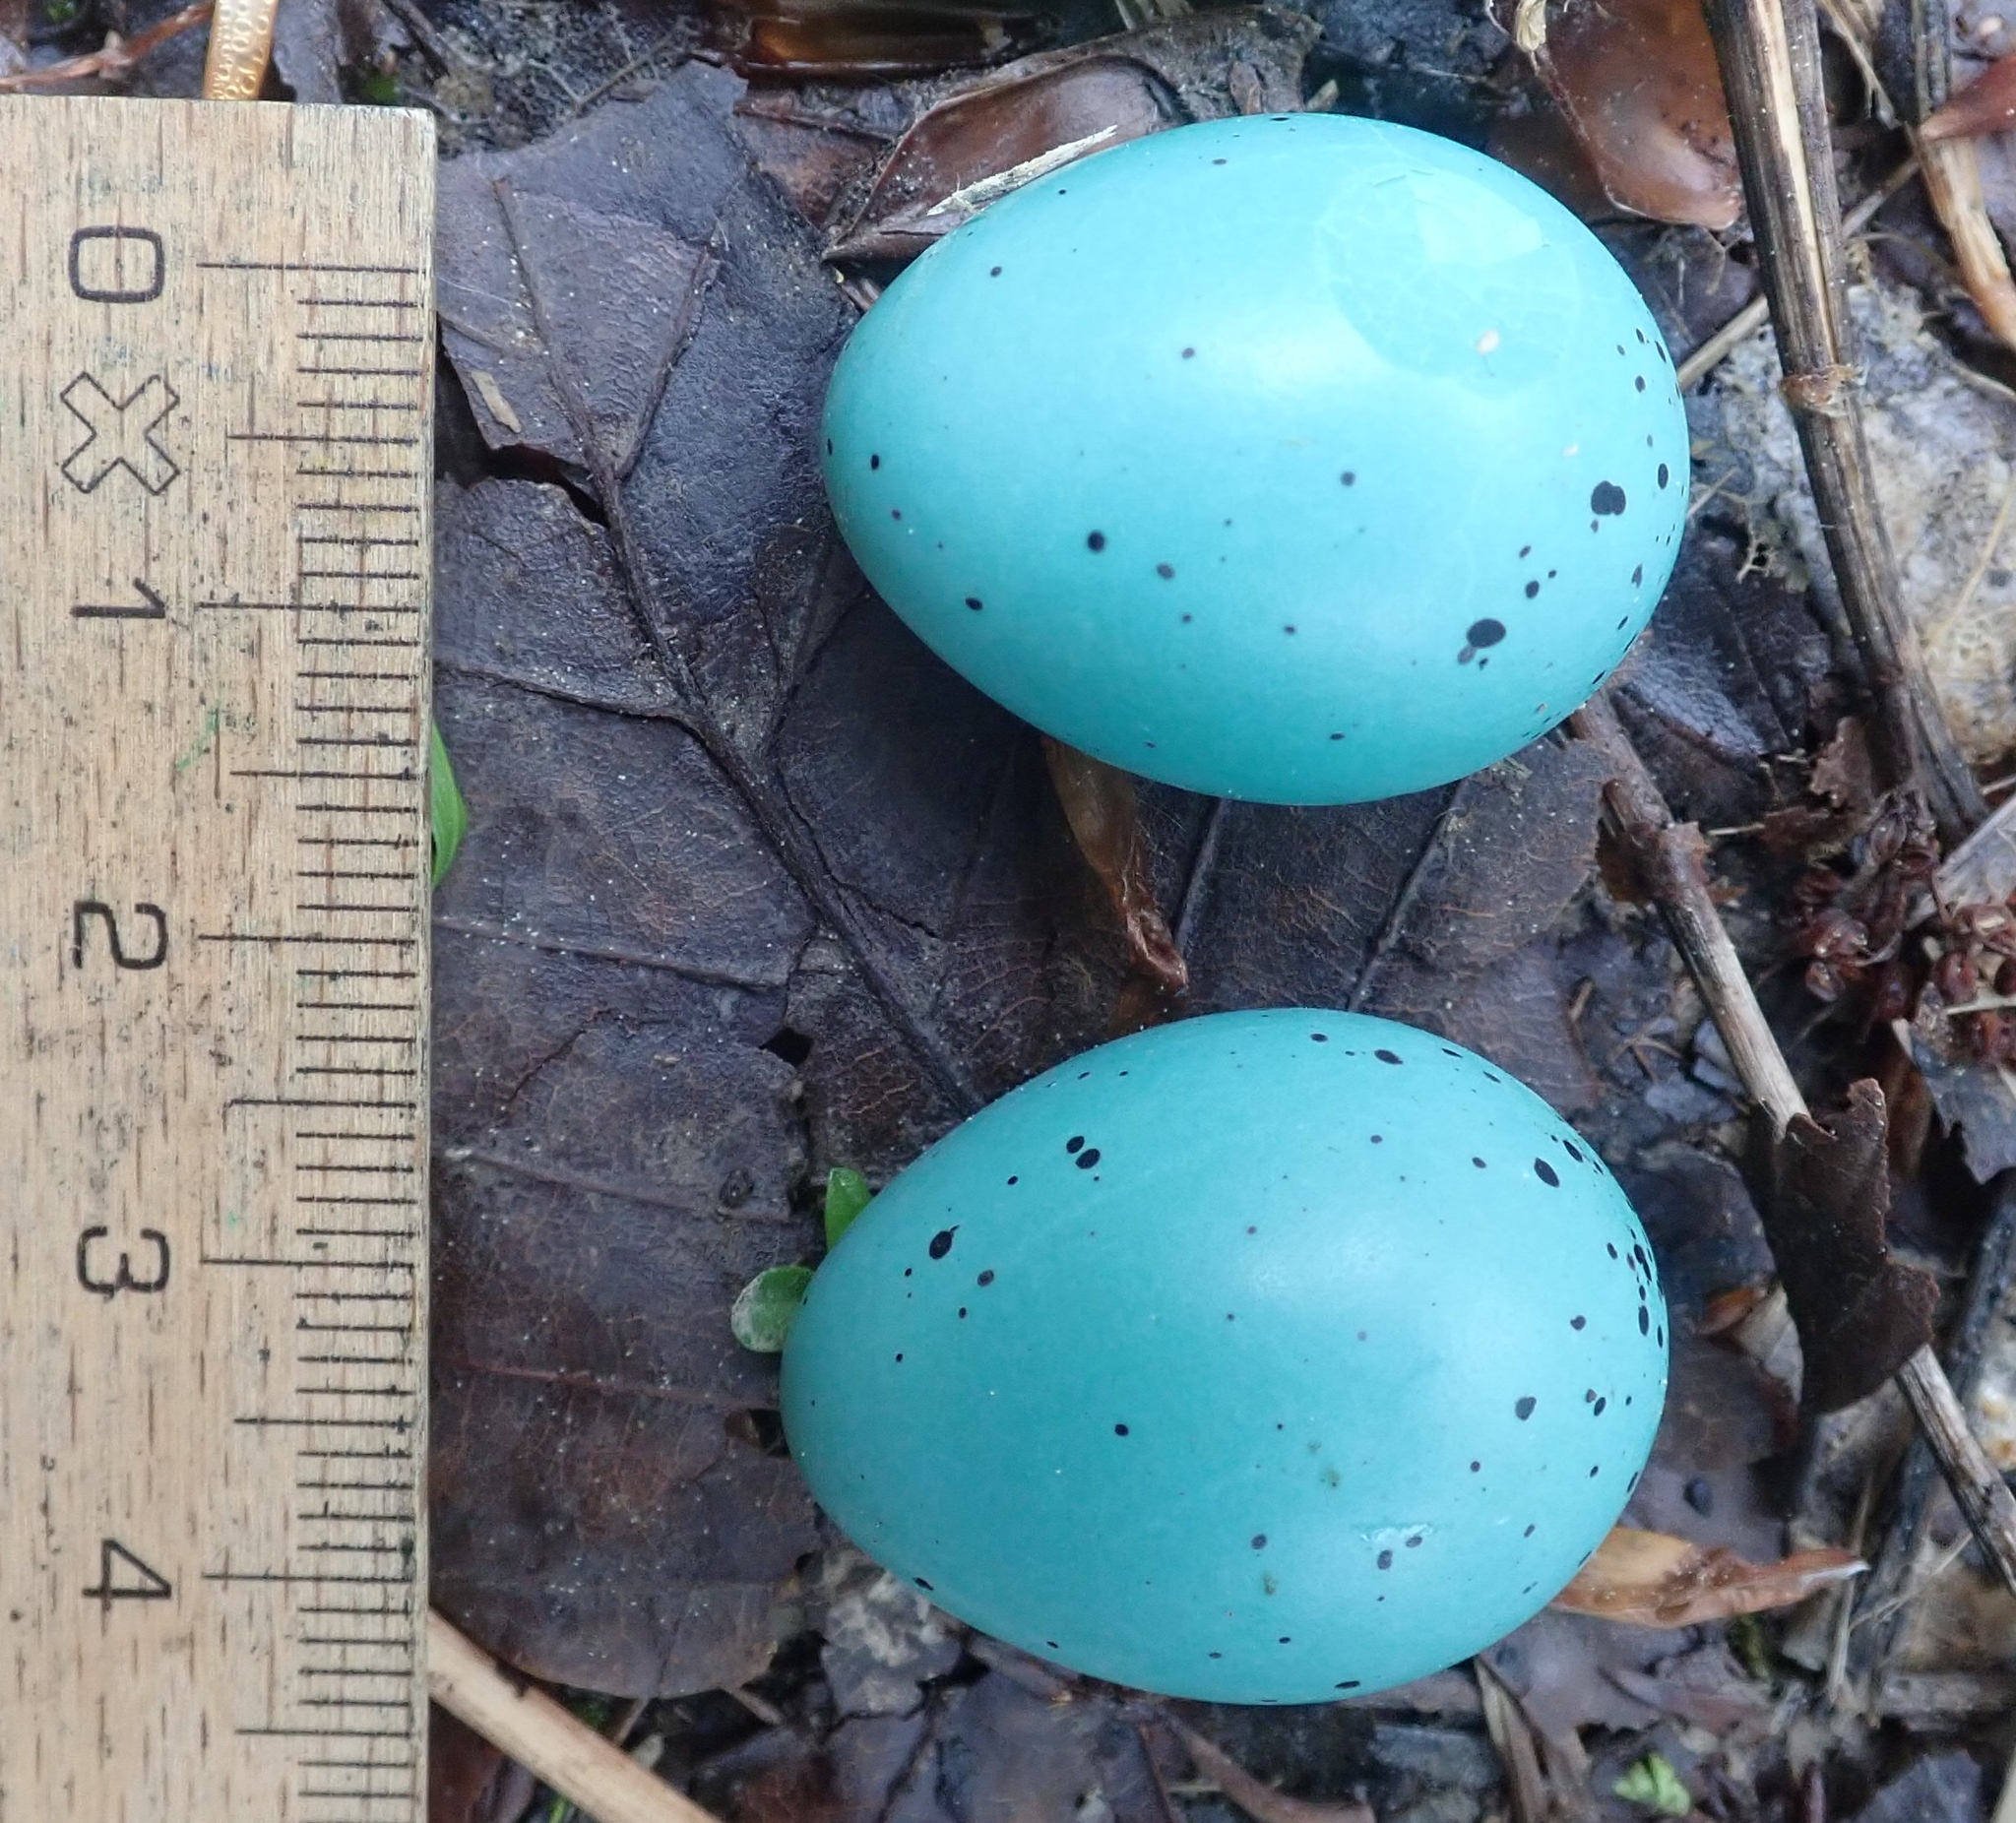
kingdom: Animalia
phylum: Chordata
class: Aves
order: Passeriformes
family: Turdidae
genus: Turdus
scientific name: Turdus philomelos
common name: Song thrush
